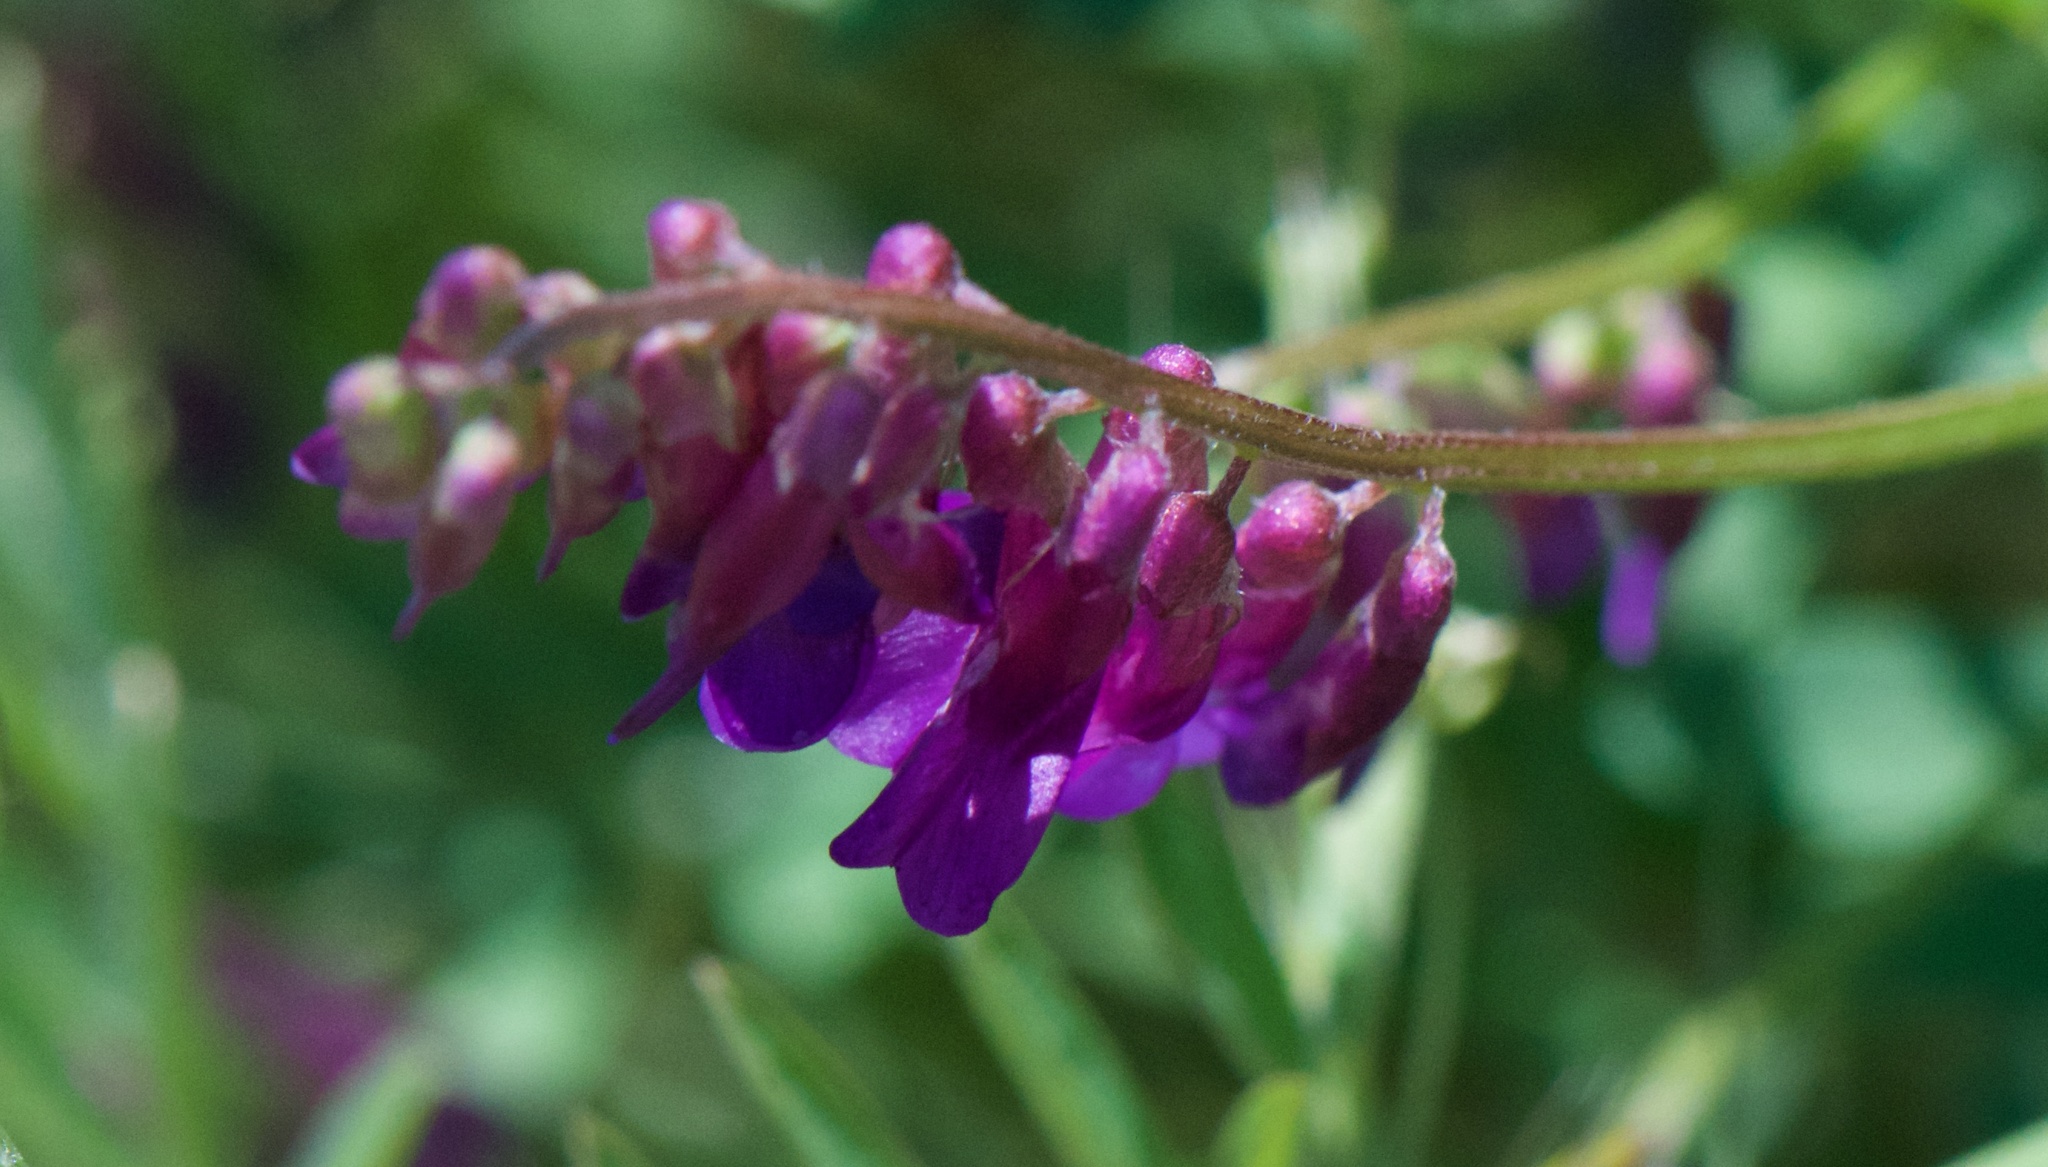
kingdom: Plantae
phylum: Tracheophyta
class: Magnoliopsida
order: Fabales
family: Fabaceae
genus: Vicia
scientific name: Vicia villosa
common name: Fodder vetch
